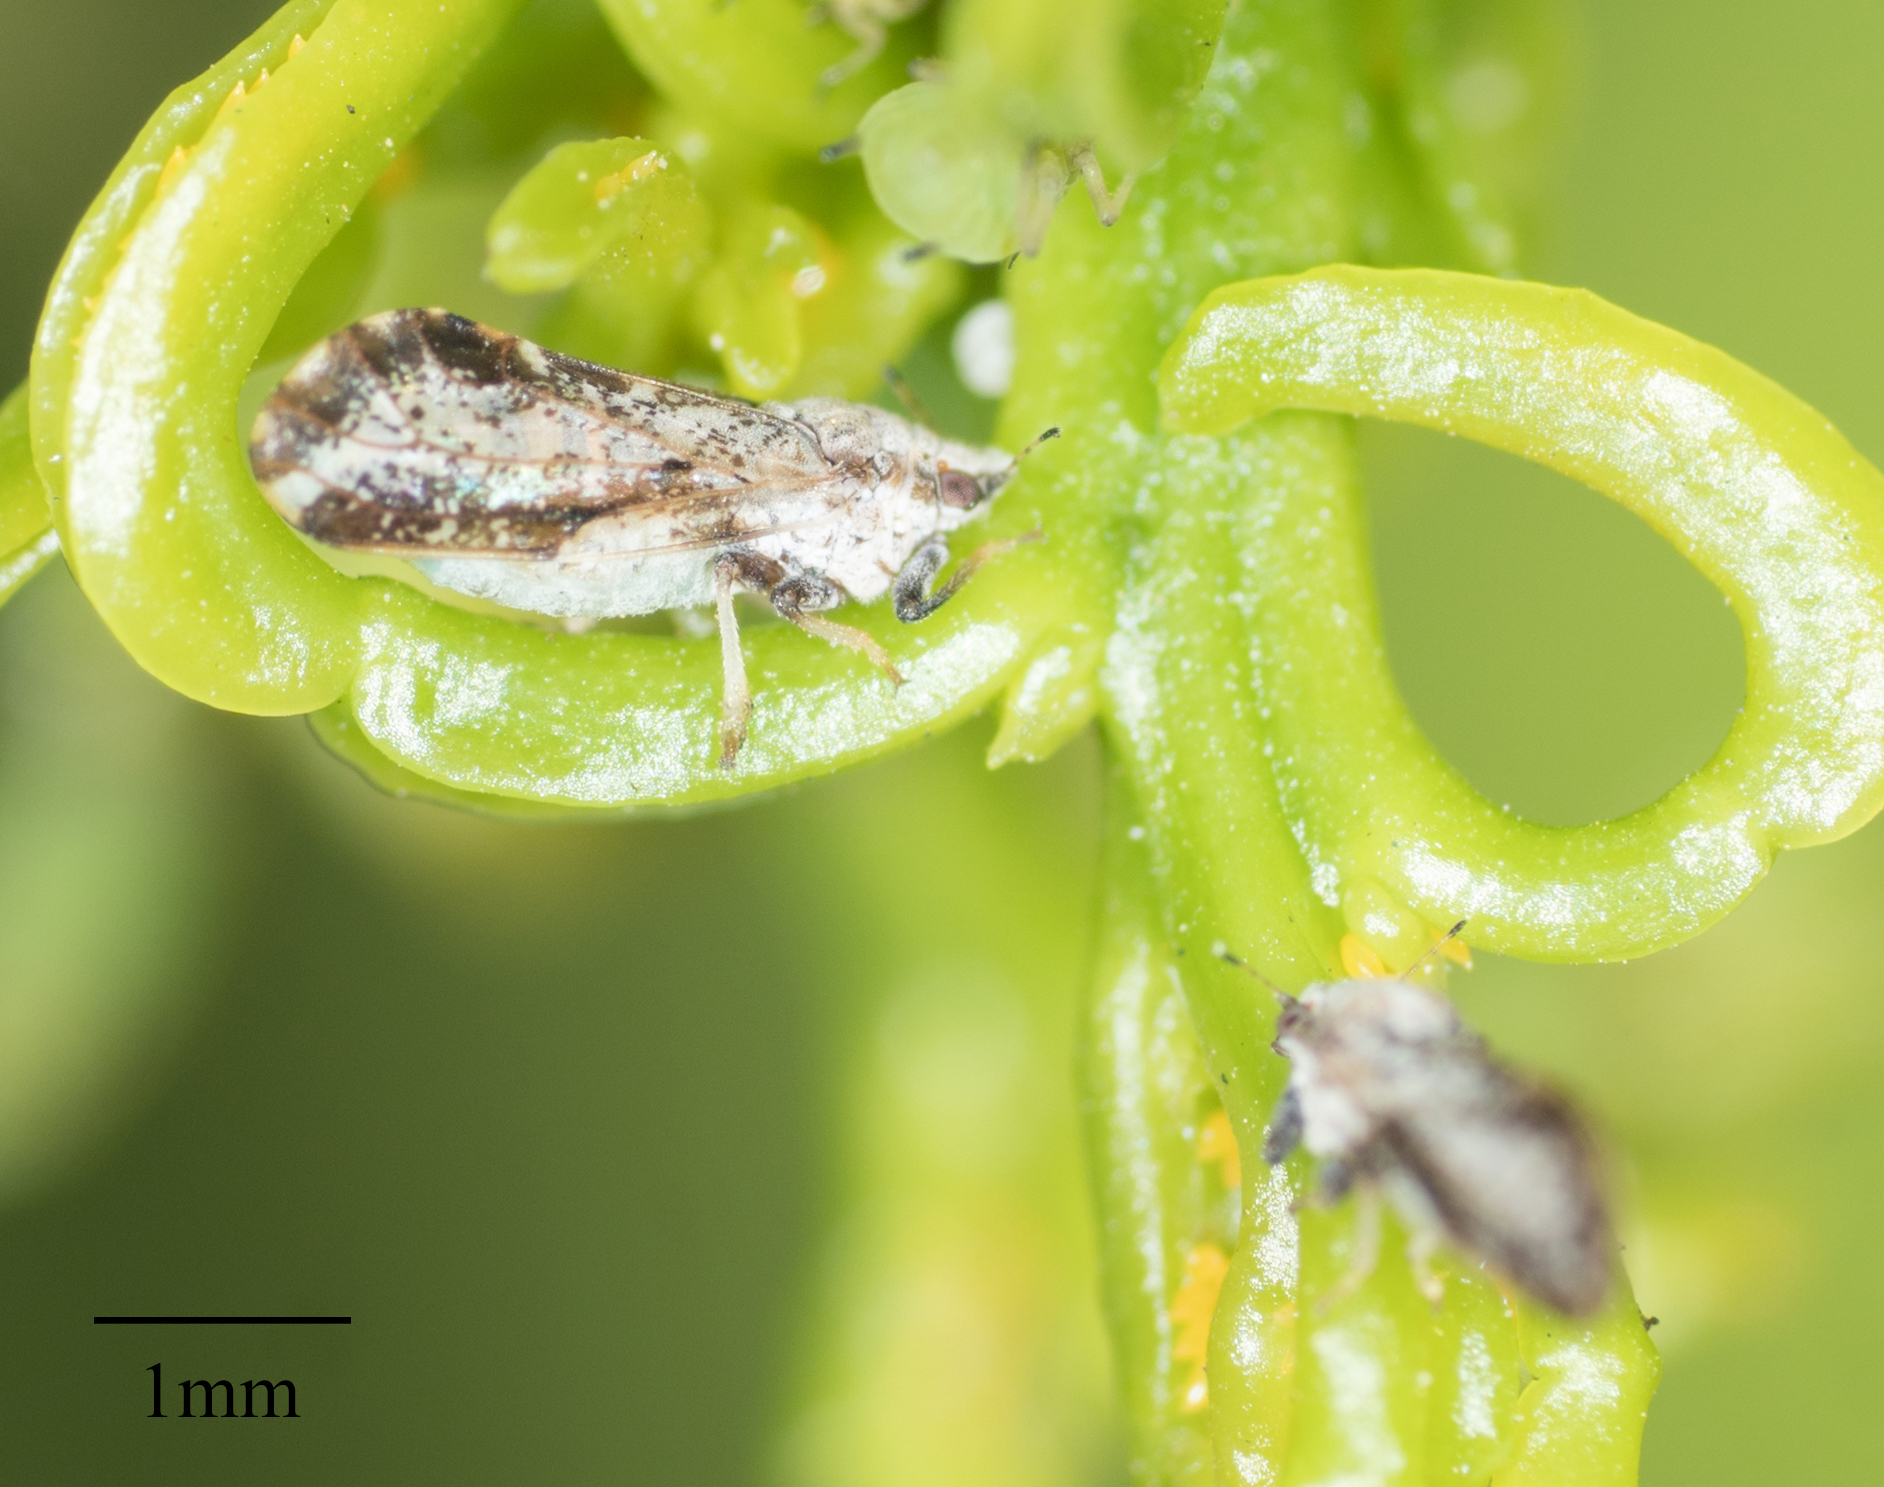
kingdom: Animalia
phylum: Arthropoda
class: Insecta
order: Hemiptera
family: Liviidae
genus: Diaphorina
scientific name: Diaphorina citri
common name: Asian citrus psyllid
